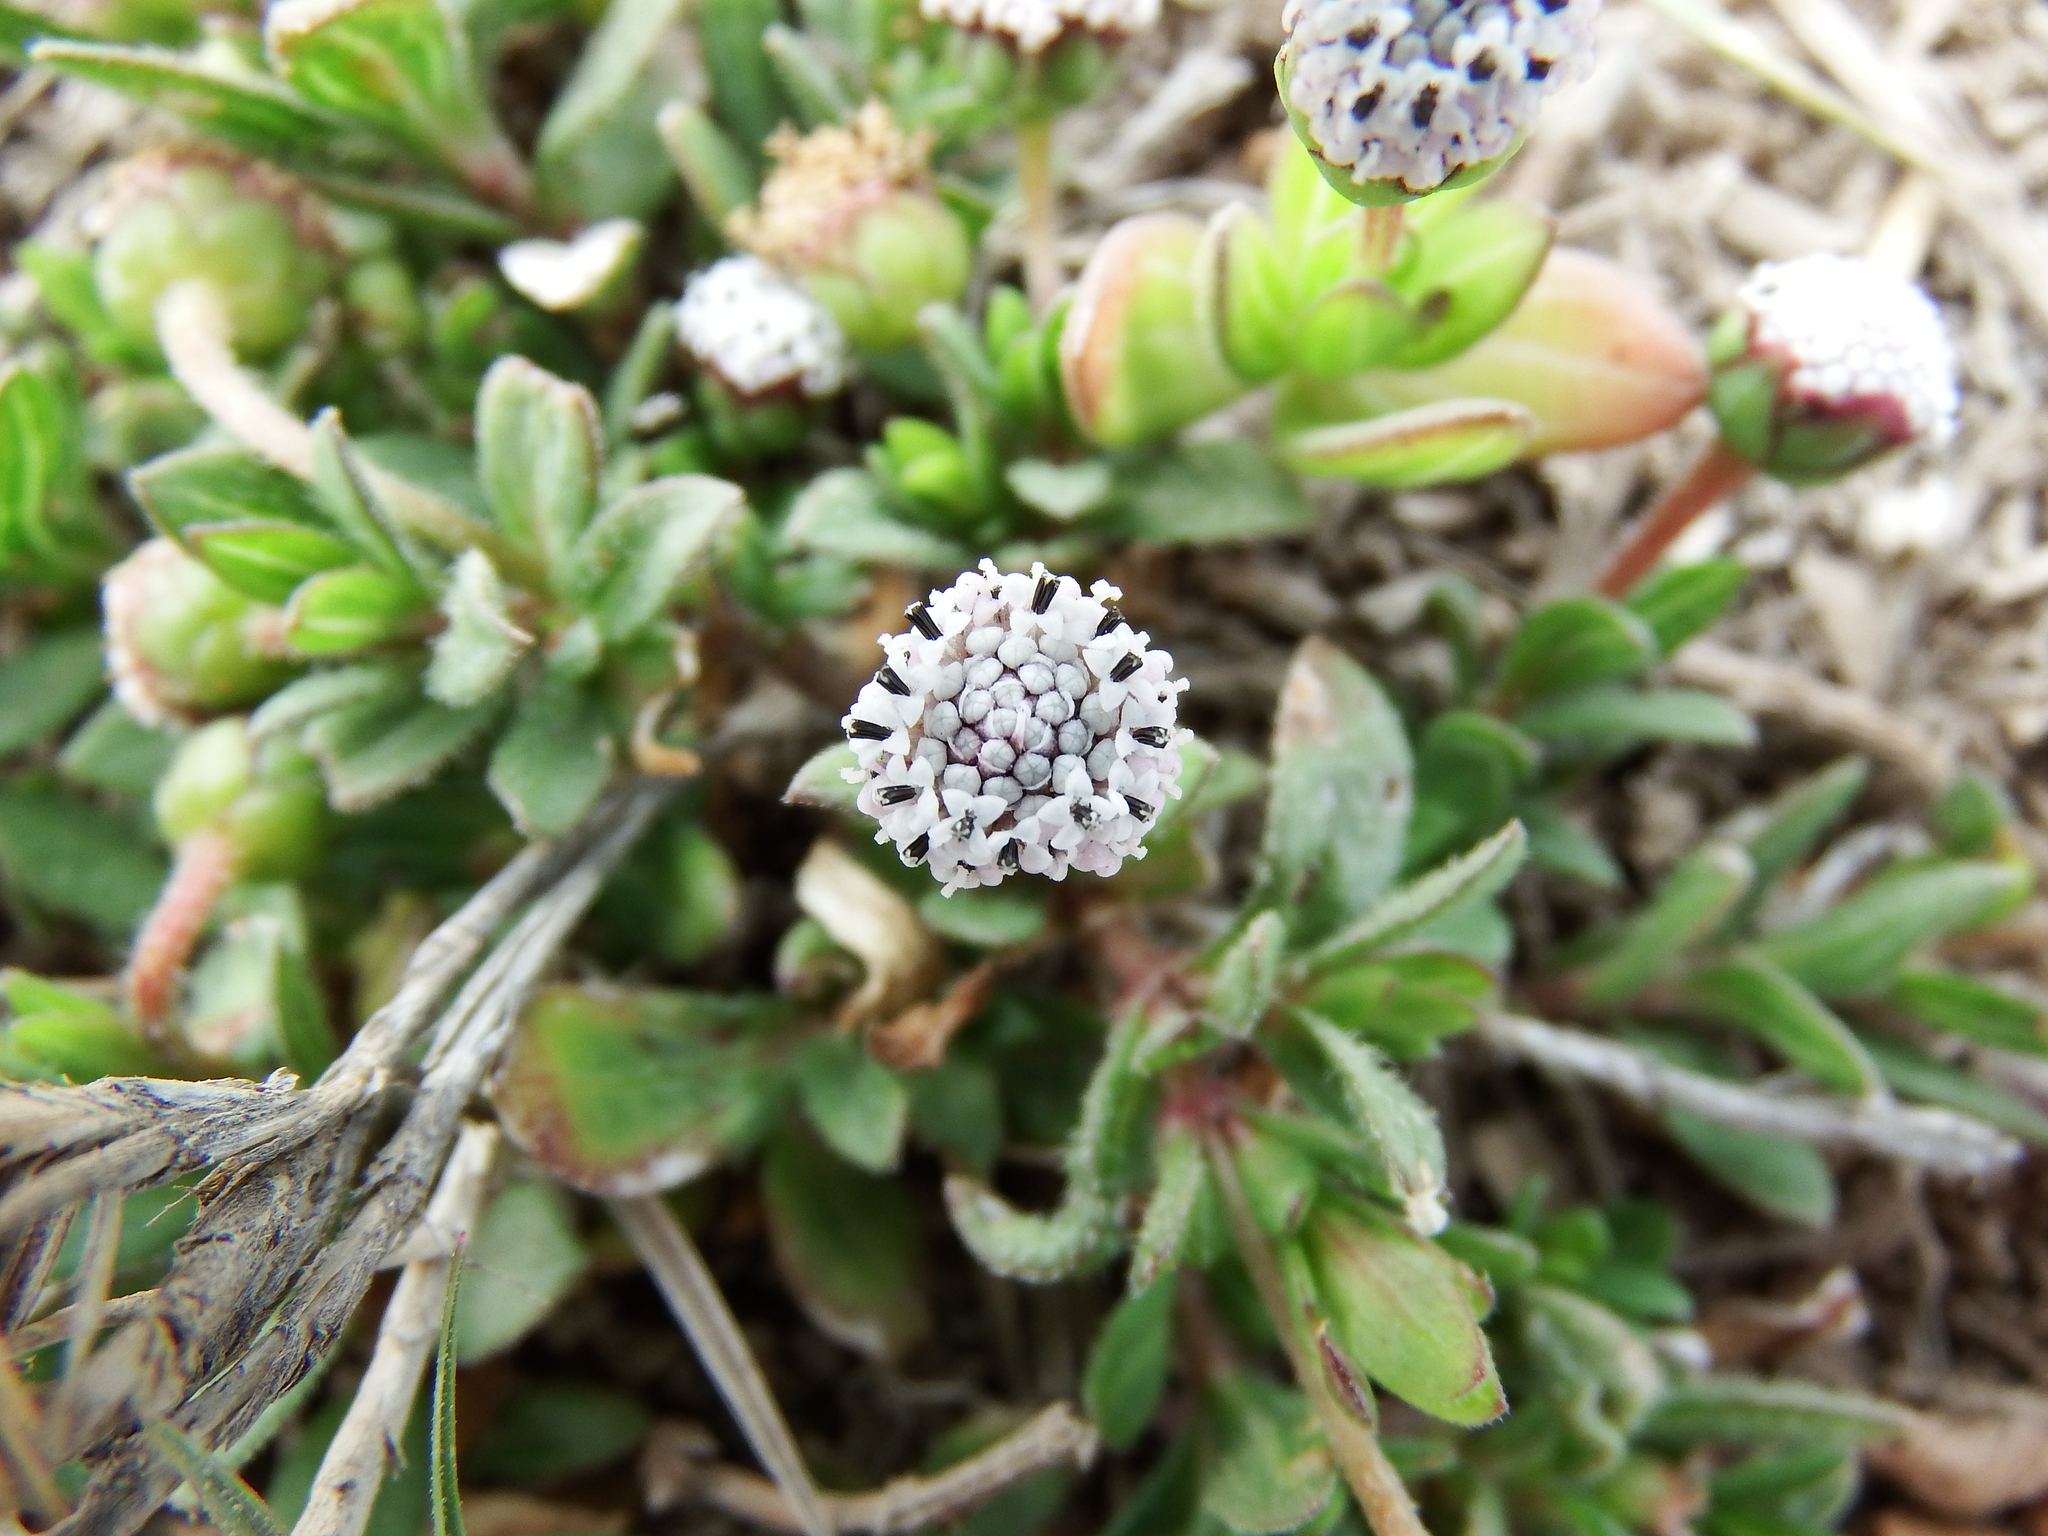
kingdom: Plantae
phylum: Tracheophyta
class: Magnoliopsida
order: Asterales
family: Asteraceae
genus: Spilanthes
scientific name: Spilanthes leiocarpa
